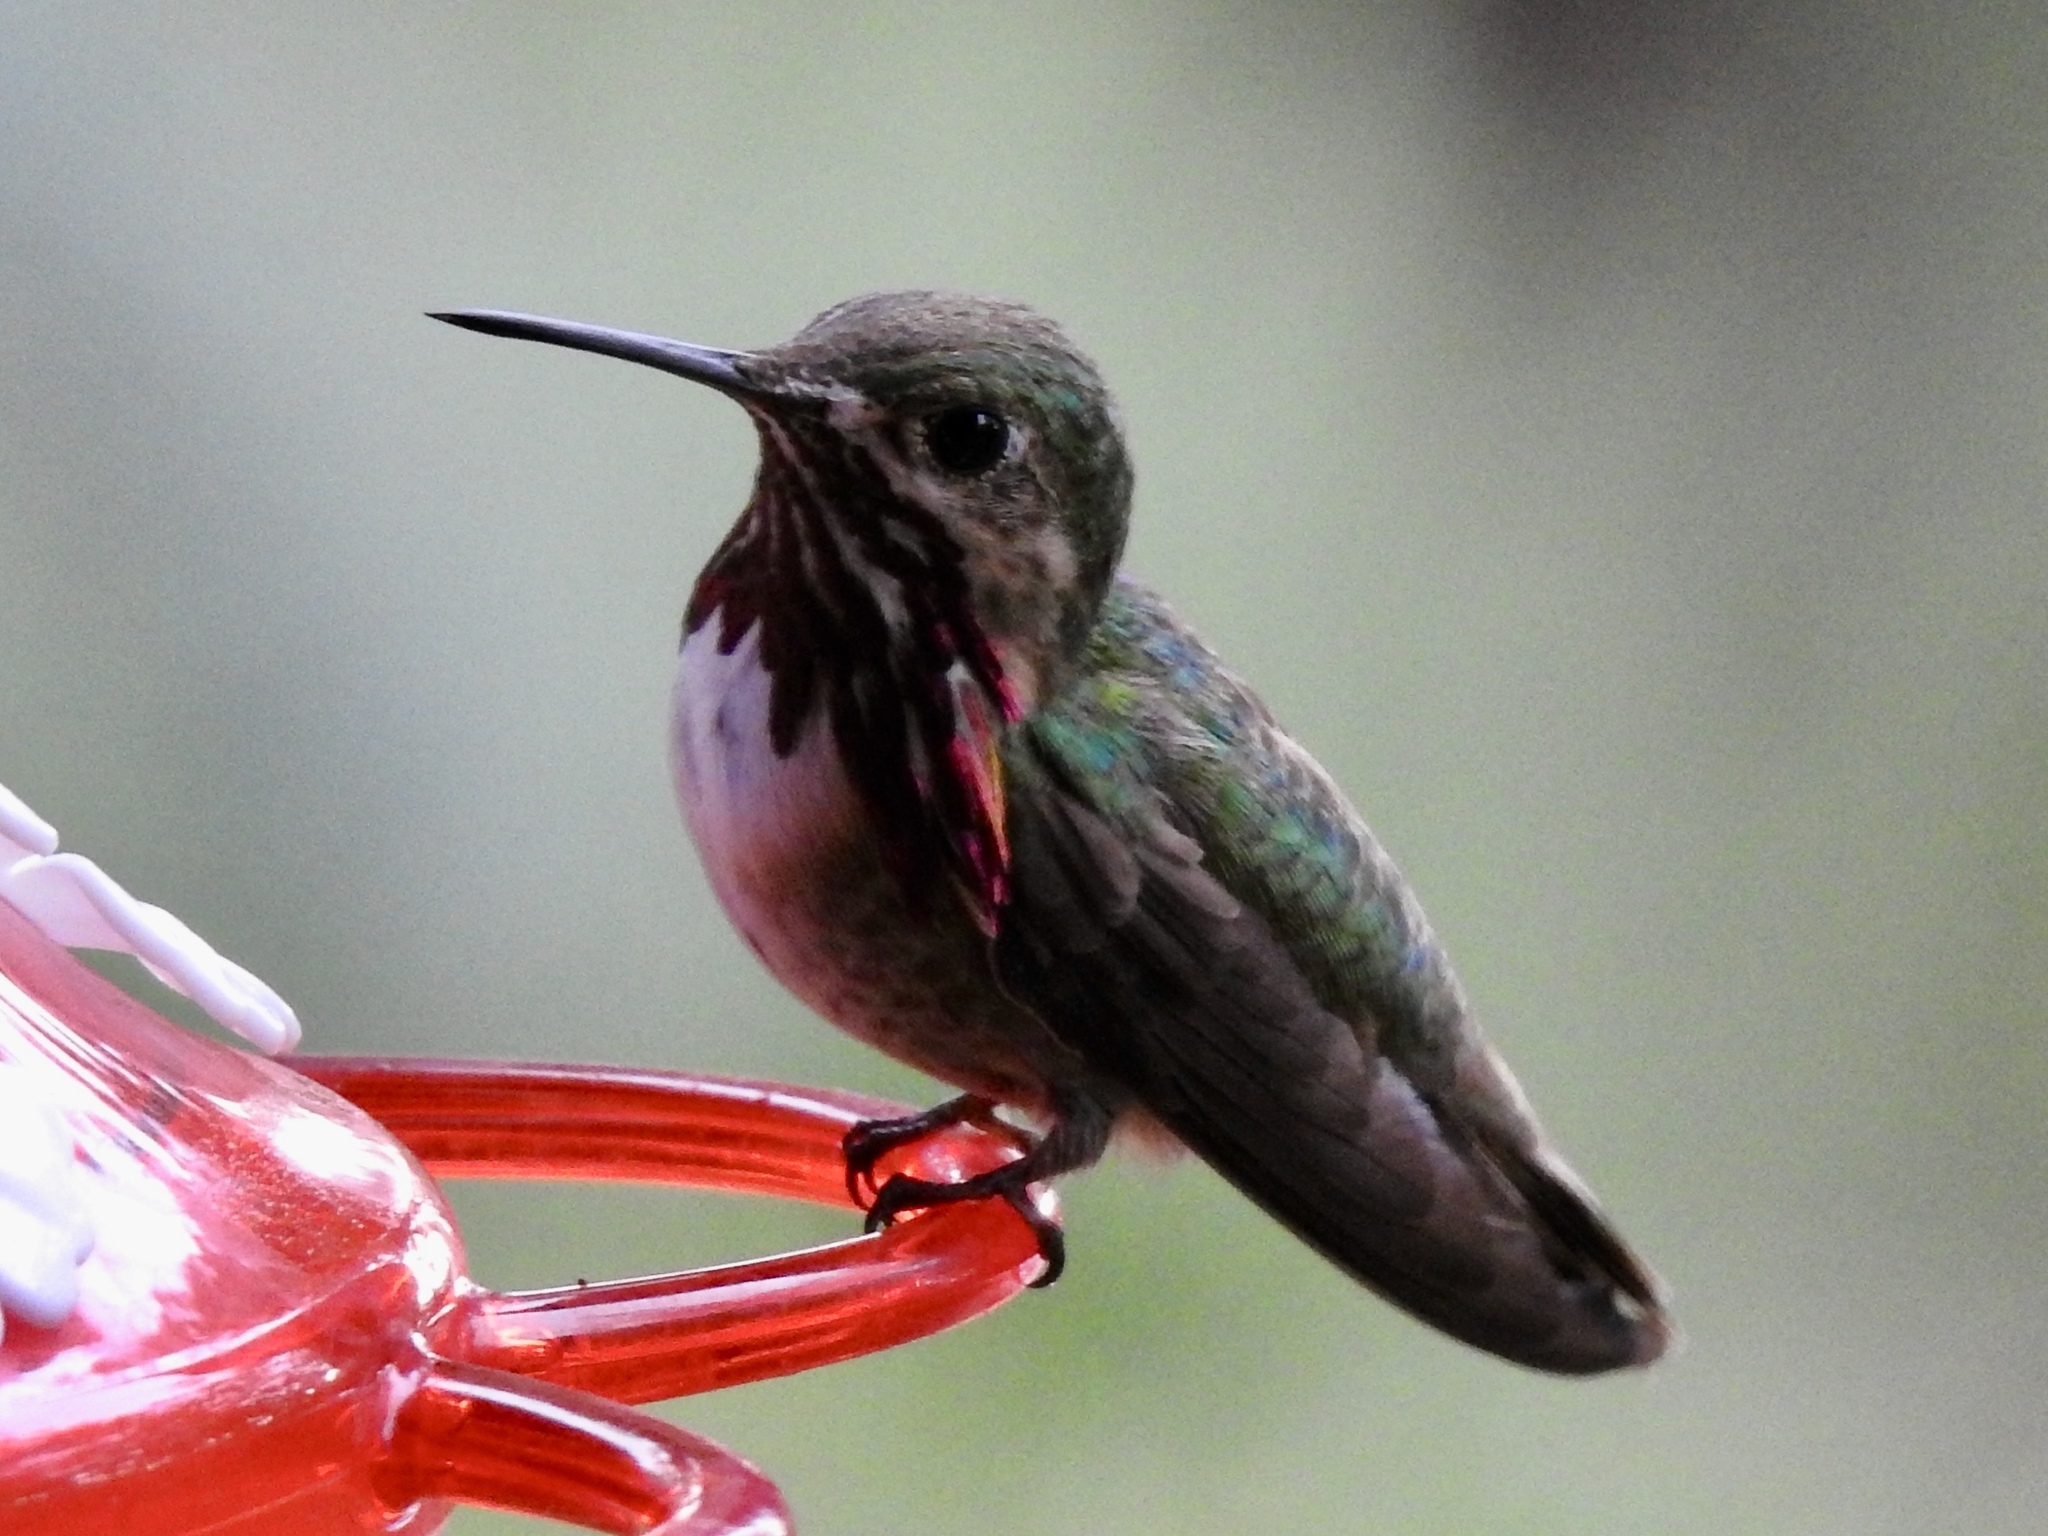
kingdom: Animalia
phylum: Chordata
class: Aves
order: Apodiformes
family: Trochilidae
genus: Selasphorus
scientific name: Selasphorus calliope
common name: Calliope hummingbird
